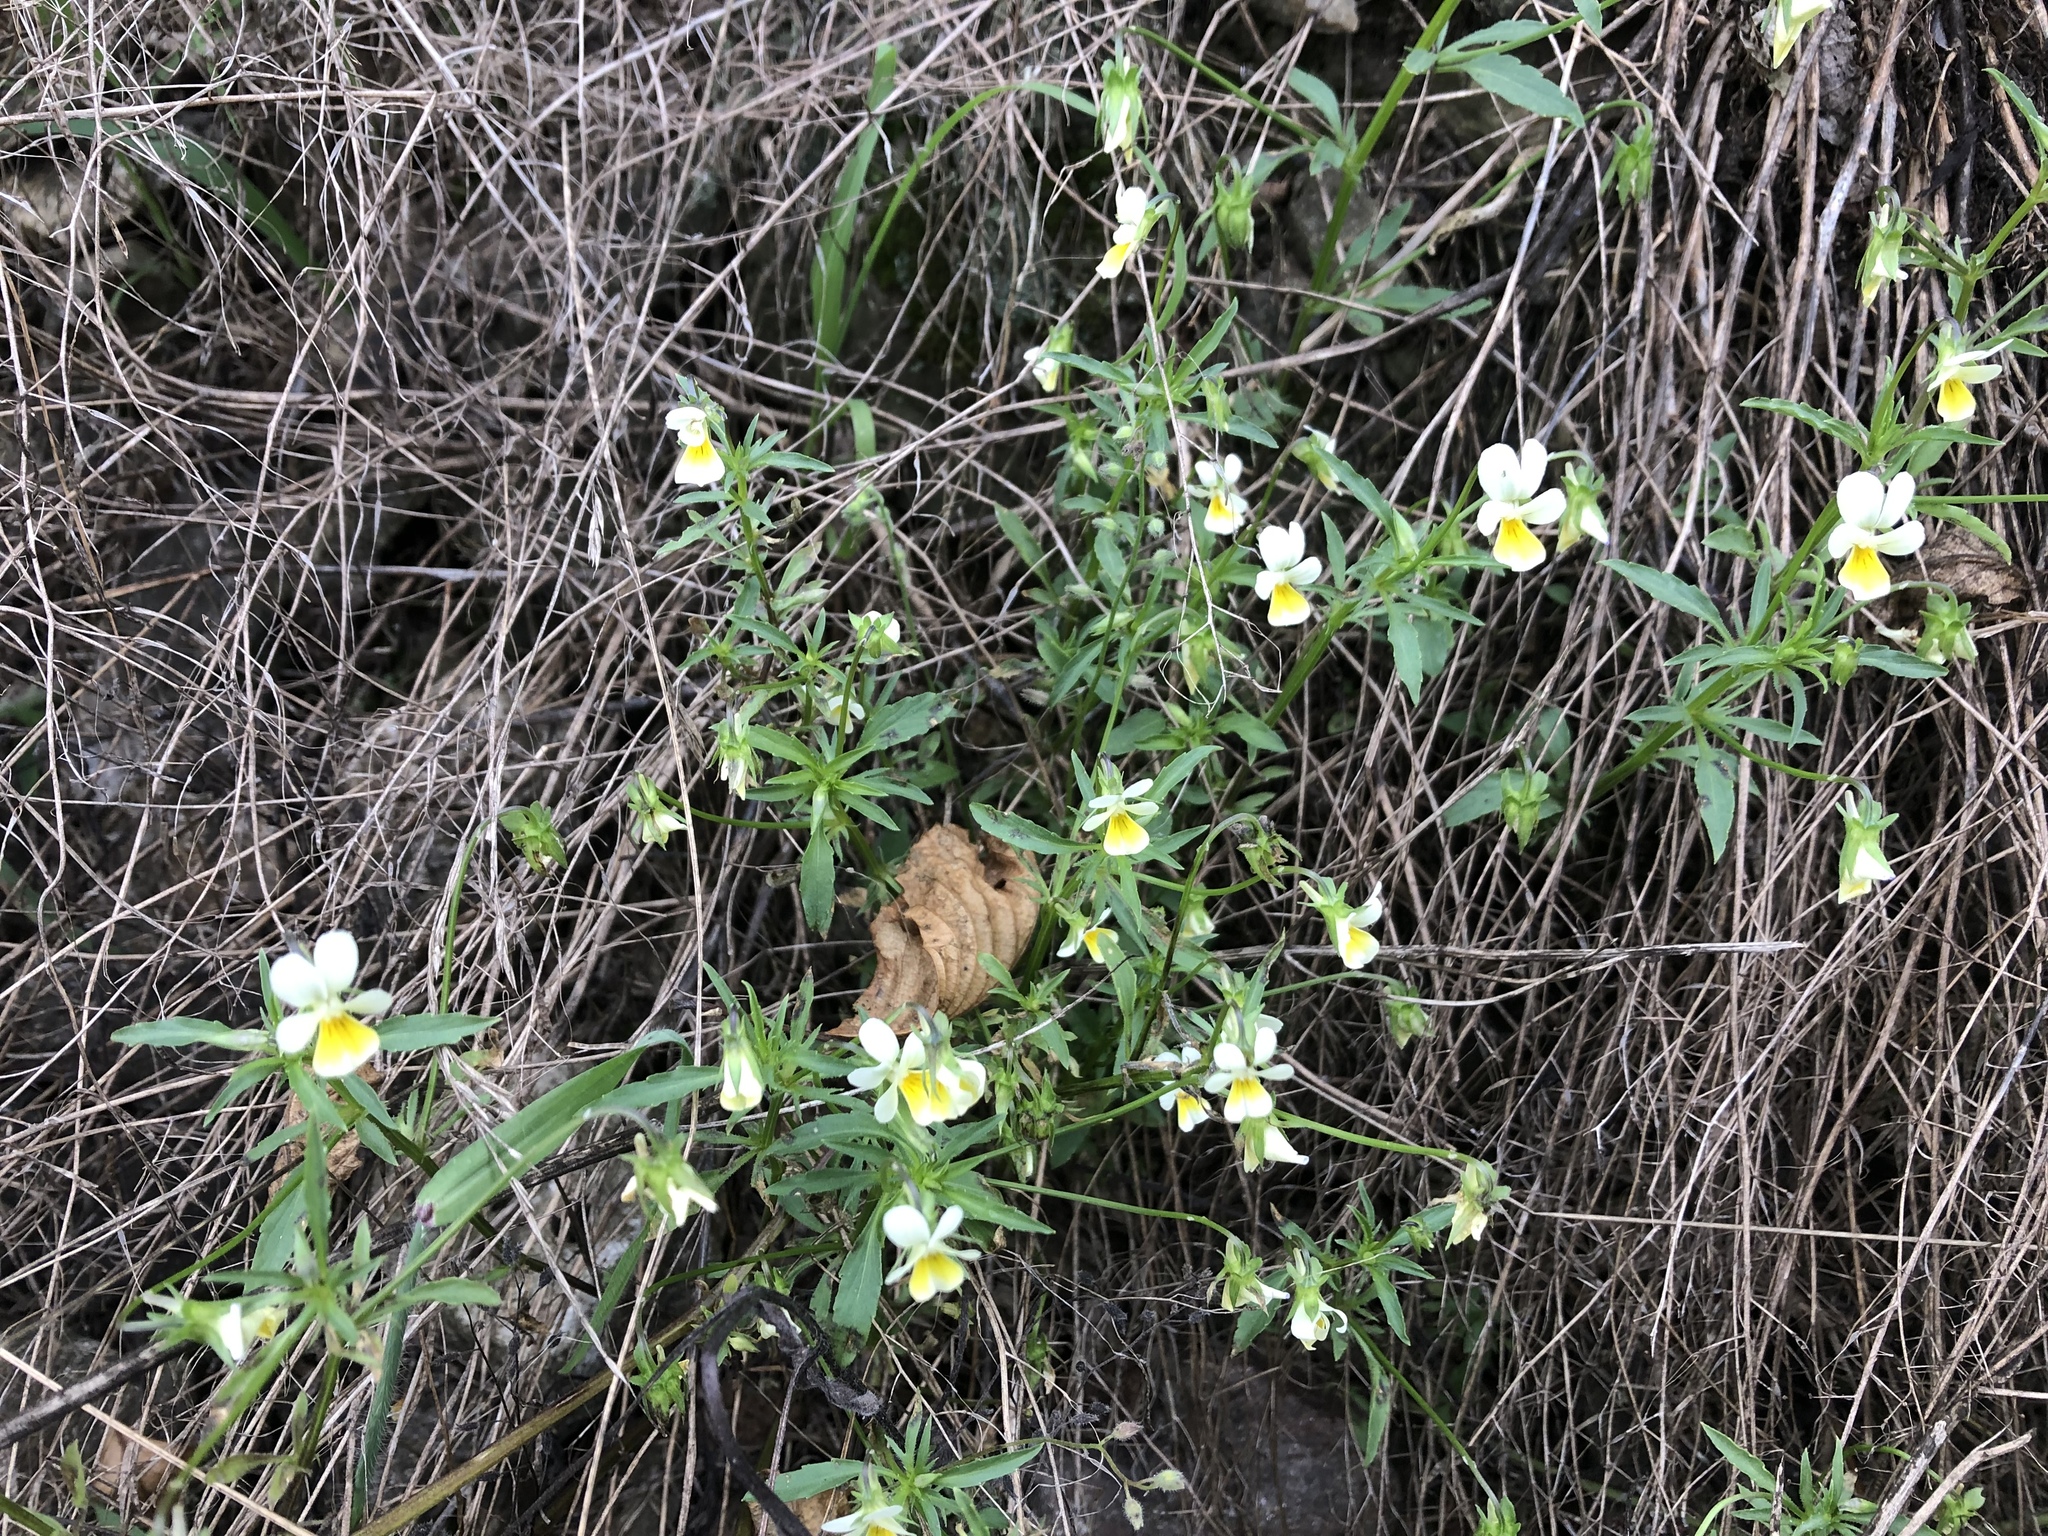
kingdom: Plantae
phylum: Tracheophyta
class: Magnoliopsida
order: Malpighiales
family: Violaceae
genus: Viola
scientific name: Viola arvensis
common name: Field pansy
